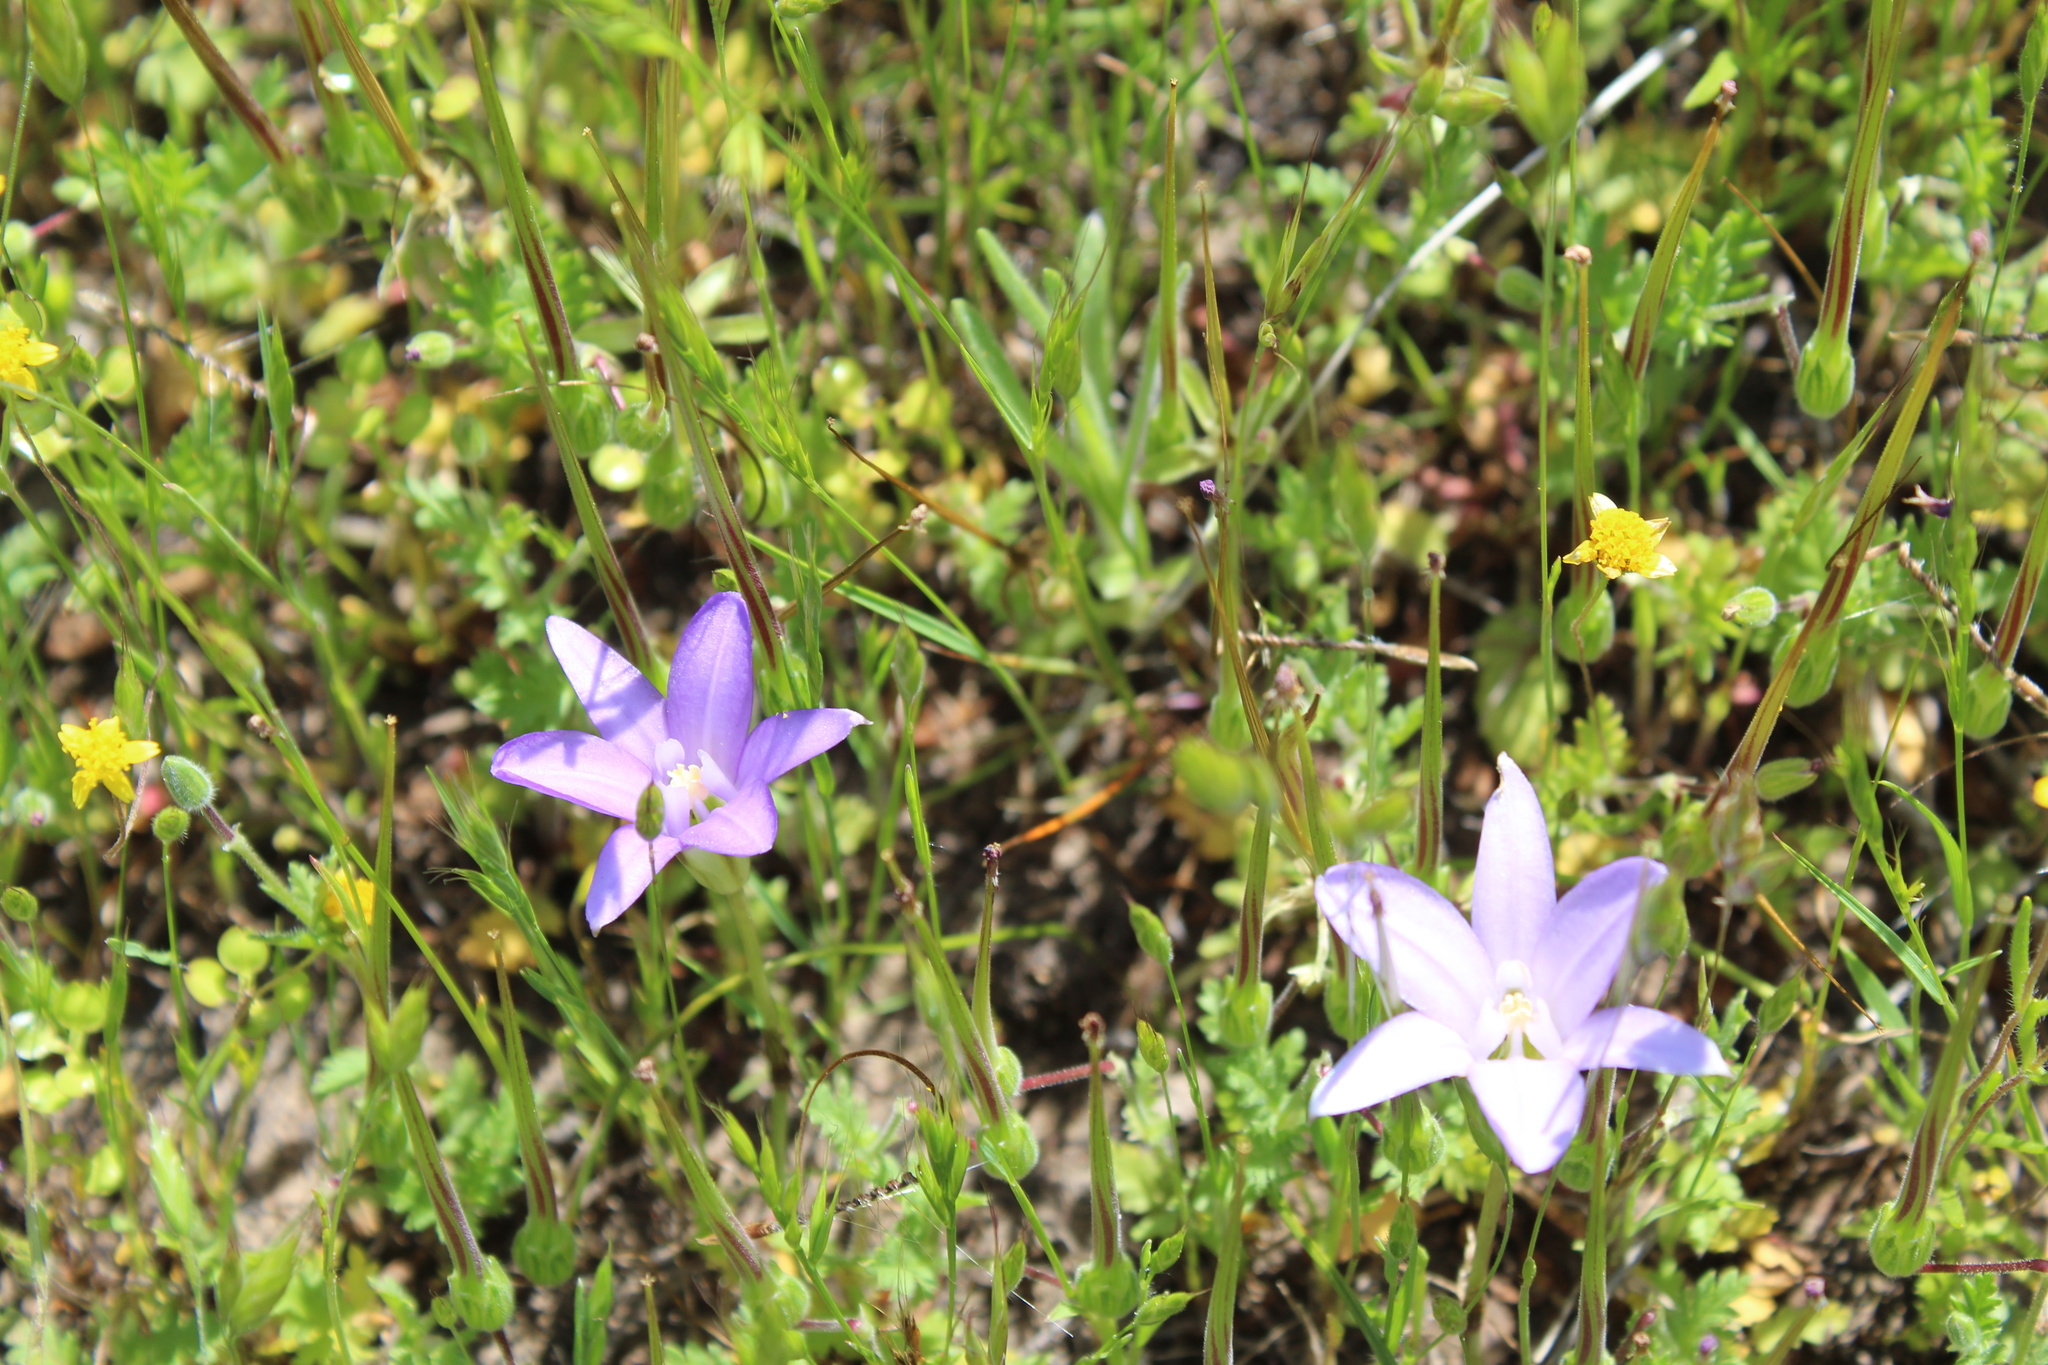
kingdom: Plantae
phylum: Tracheophyta
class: Liliopsida
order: Asparagales
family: Asparagaceae
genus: Brodiaea
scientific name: Brodiaea terrestris
